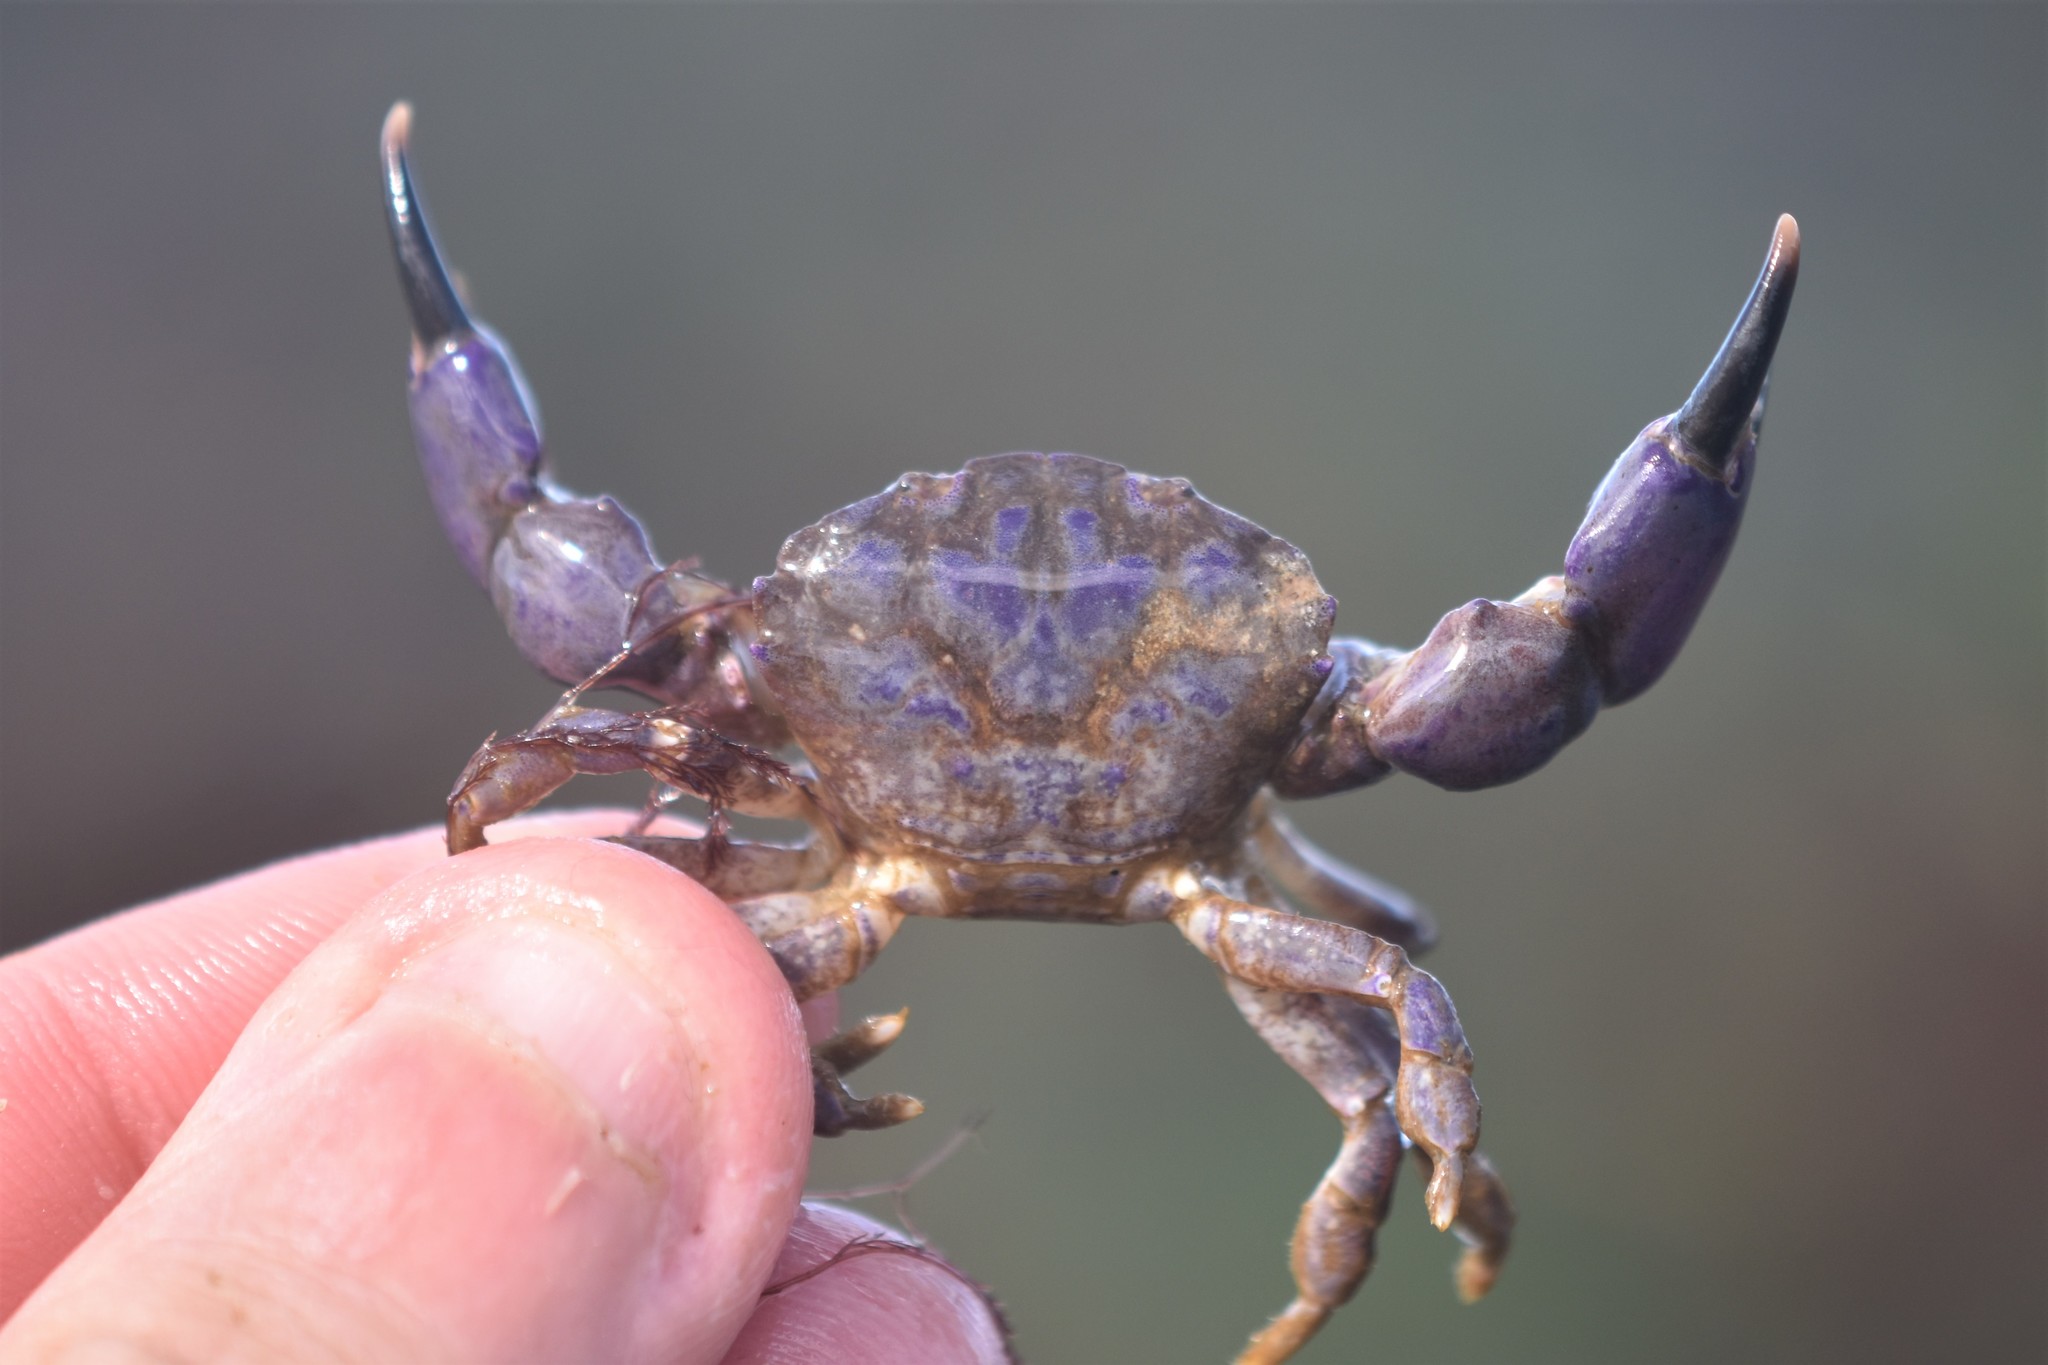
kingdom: Animalia
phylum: Arthropoda
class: Malacostraca
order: Decapoda
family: Panopeidae
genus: Lophopanopeus
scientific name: Lophopanopeus bellus
